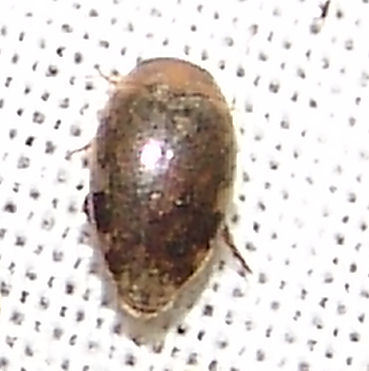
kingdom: Animalia
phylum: Arthropoda
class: Insecta
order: Coleoptera
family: Dytiscidae
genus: Laccophilus
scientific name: Laccophilus proximus
